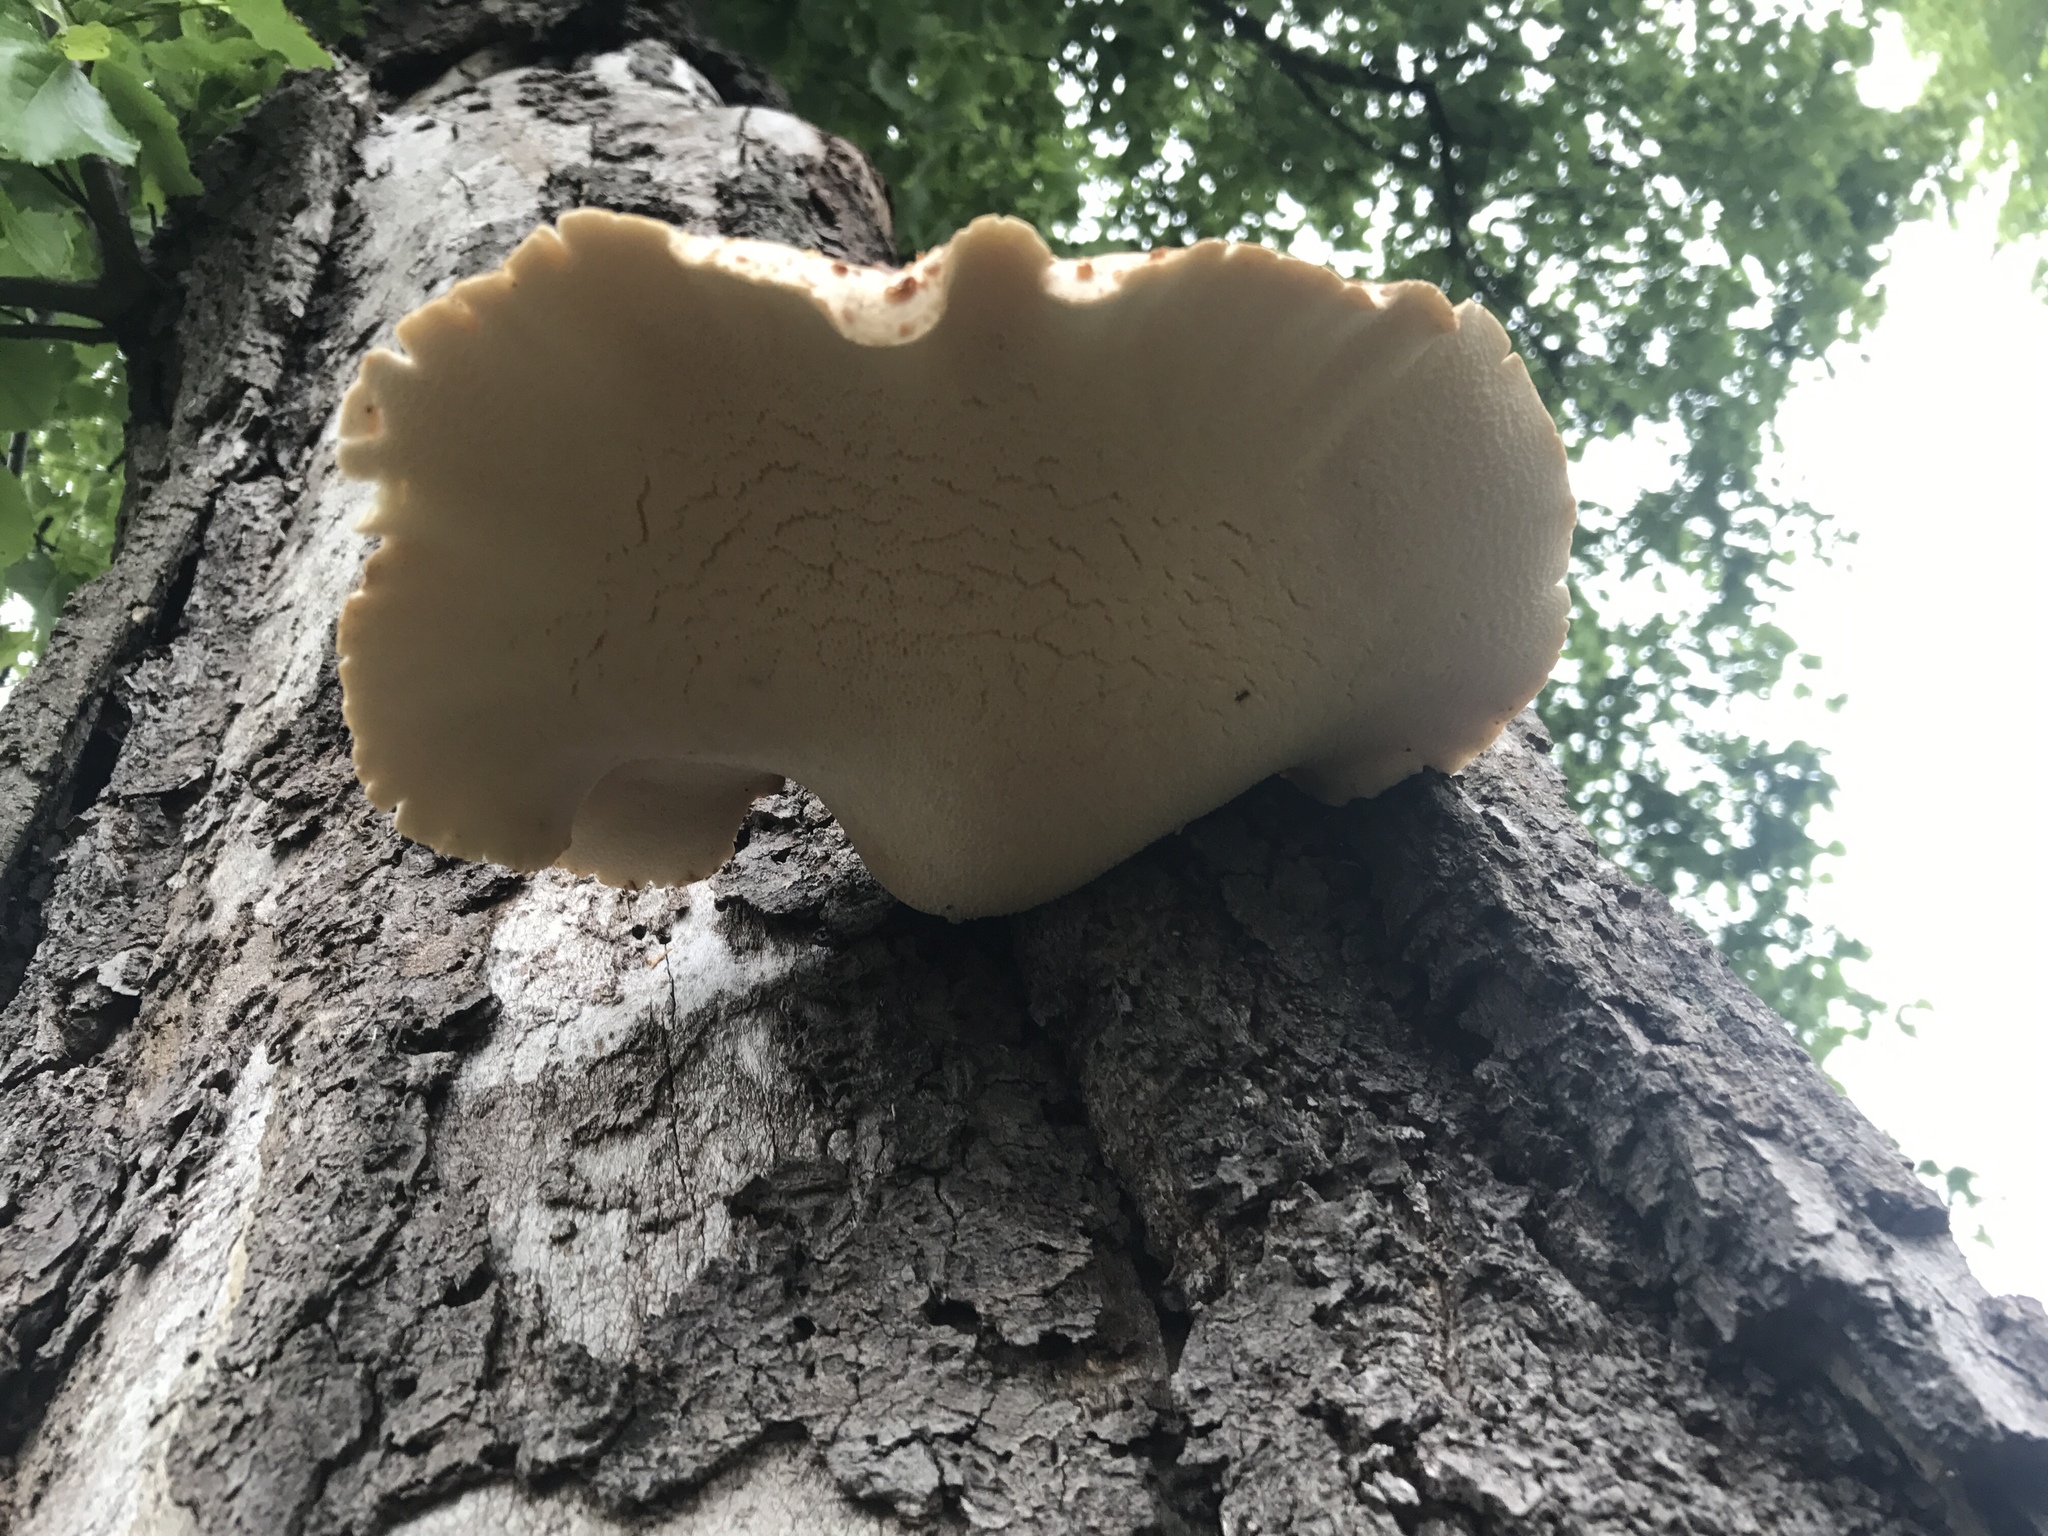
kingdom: Fungi
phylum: Basidiomycota
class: Agaricomycetes
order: Polyporales
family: Polyporaceae
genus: Cerioporus
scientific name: Cerioporus squamosus
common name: Dryad's saddle
